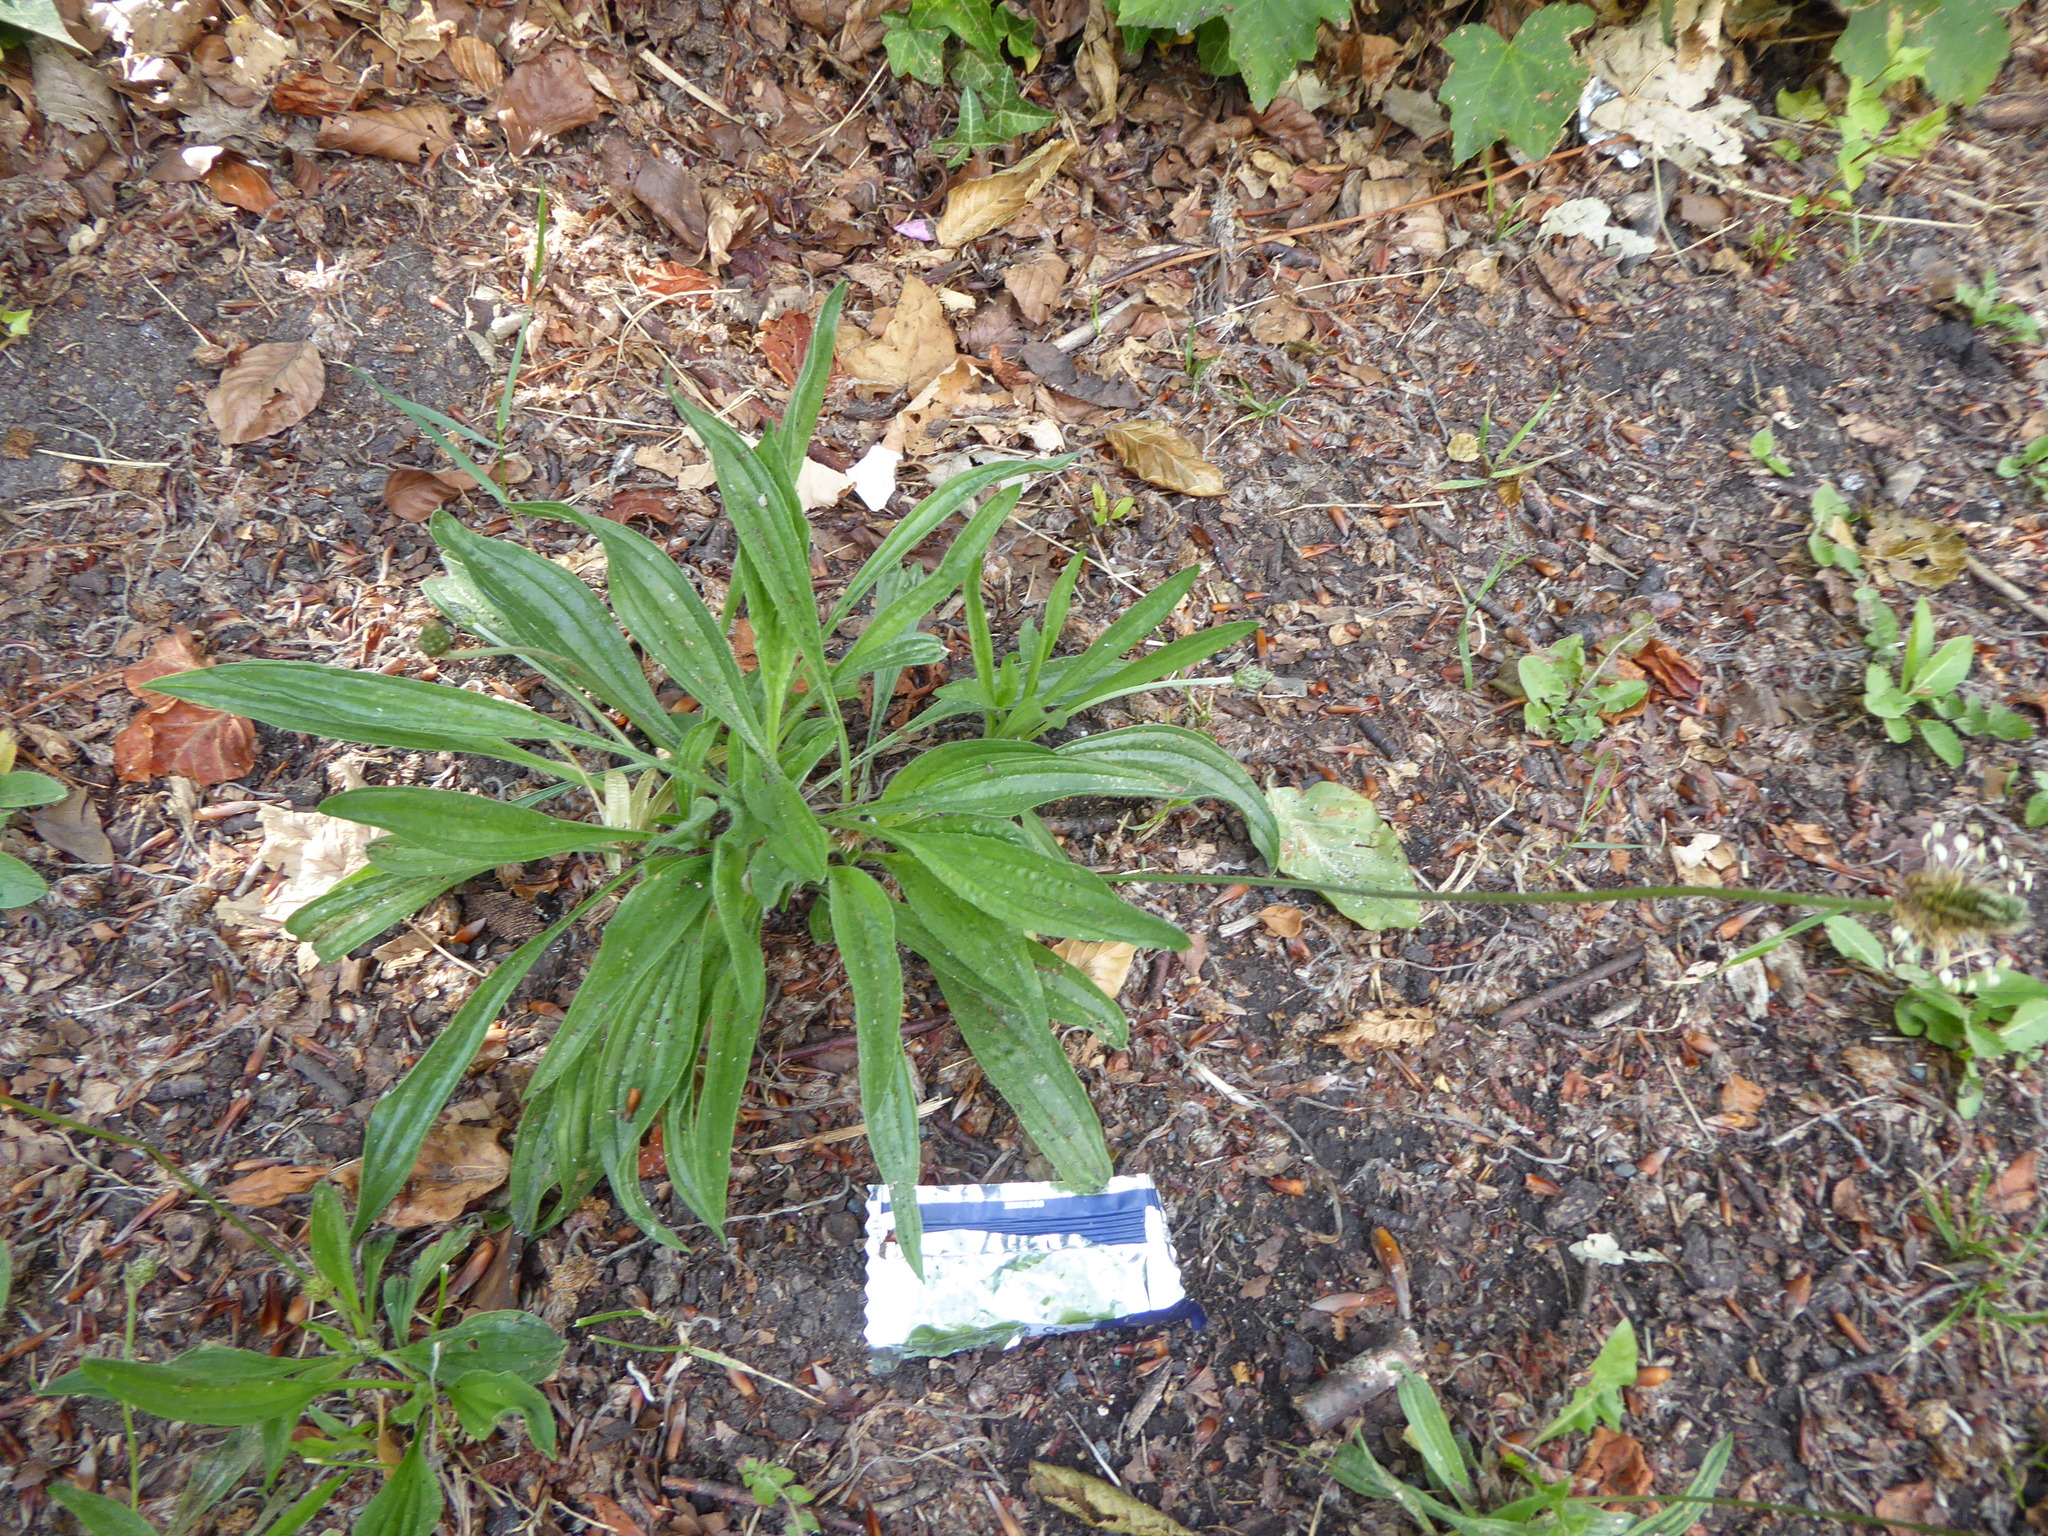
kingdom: Plantae
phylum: Tracheophyta
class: Magnoliopsida
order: Lamiales
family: Plantaginaceae
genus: Plantago
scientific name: Plantago lanceolata
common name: Ribwort plantain
